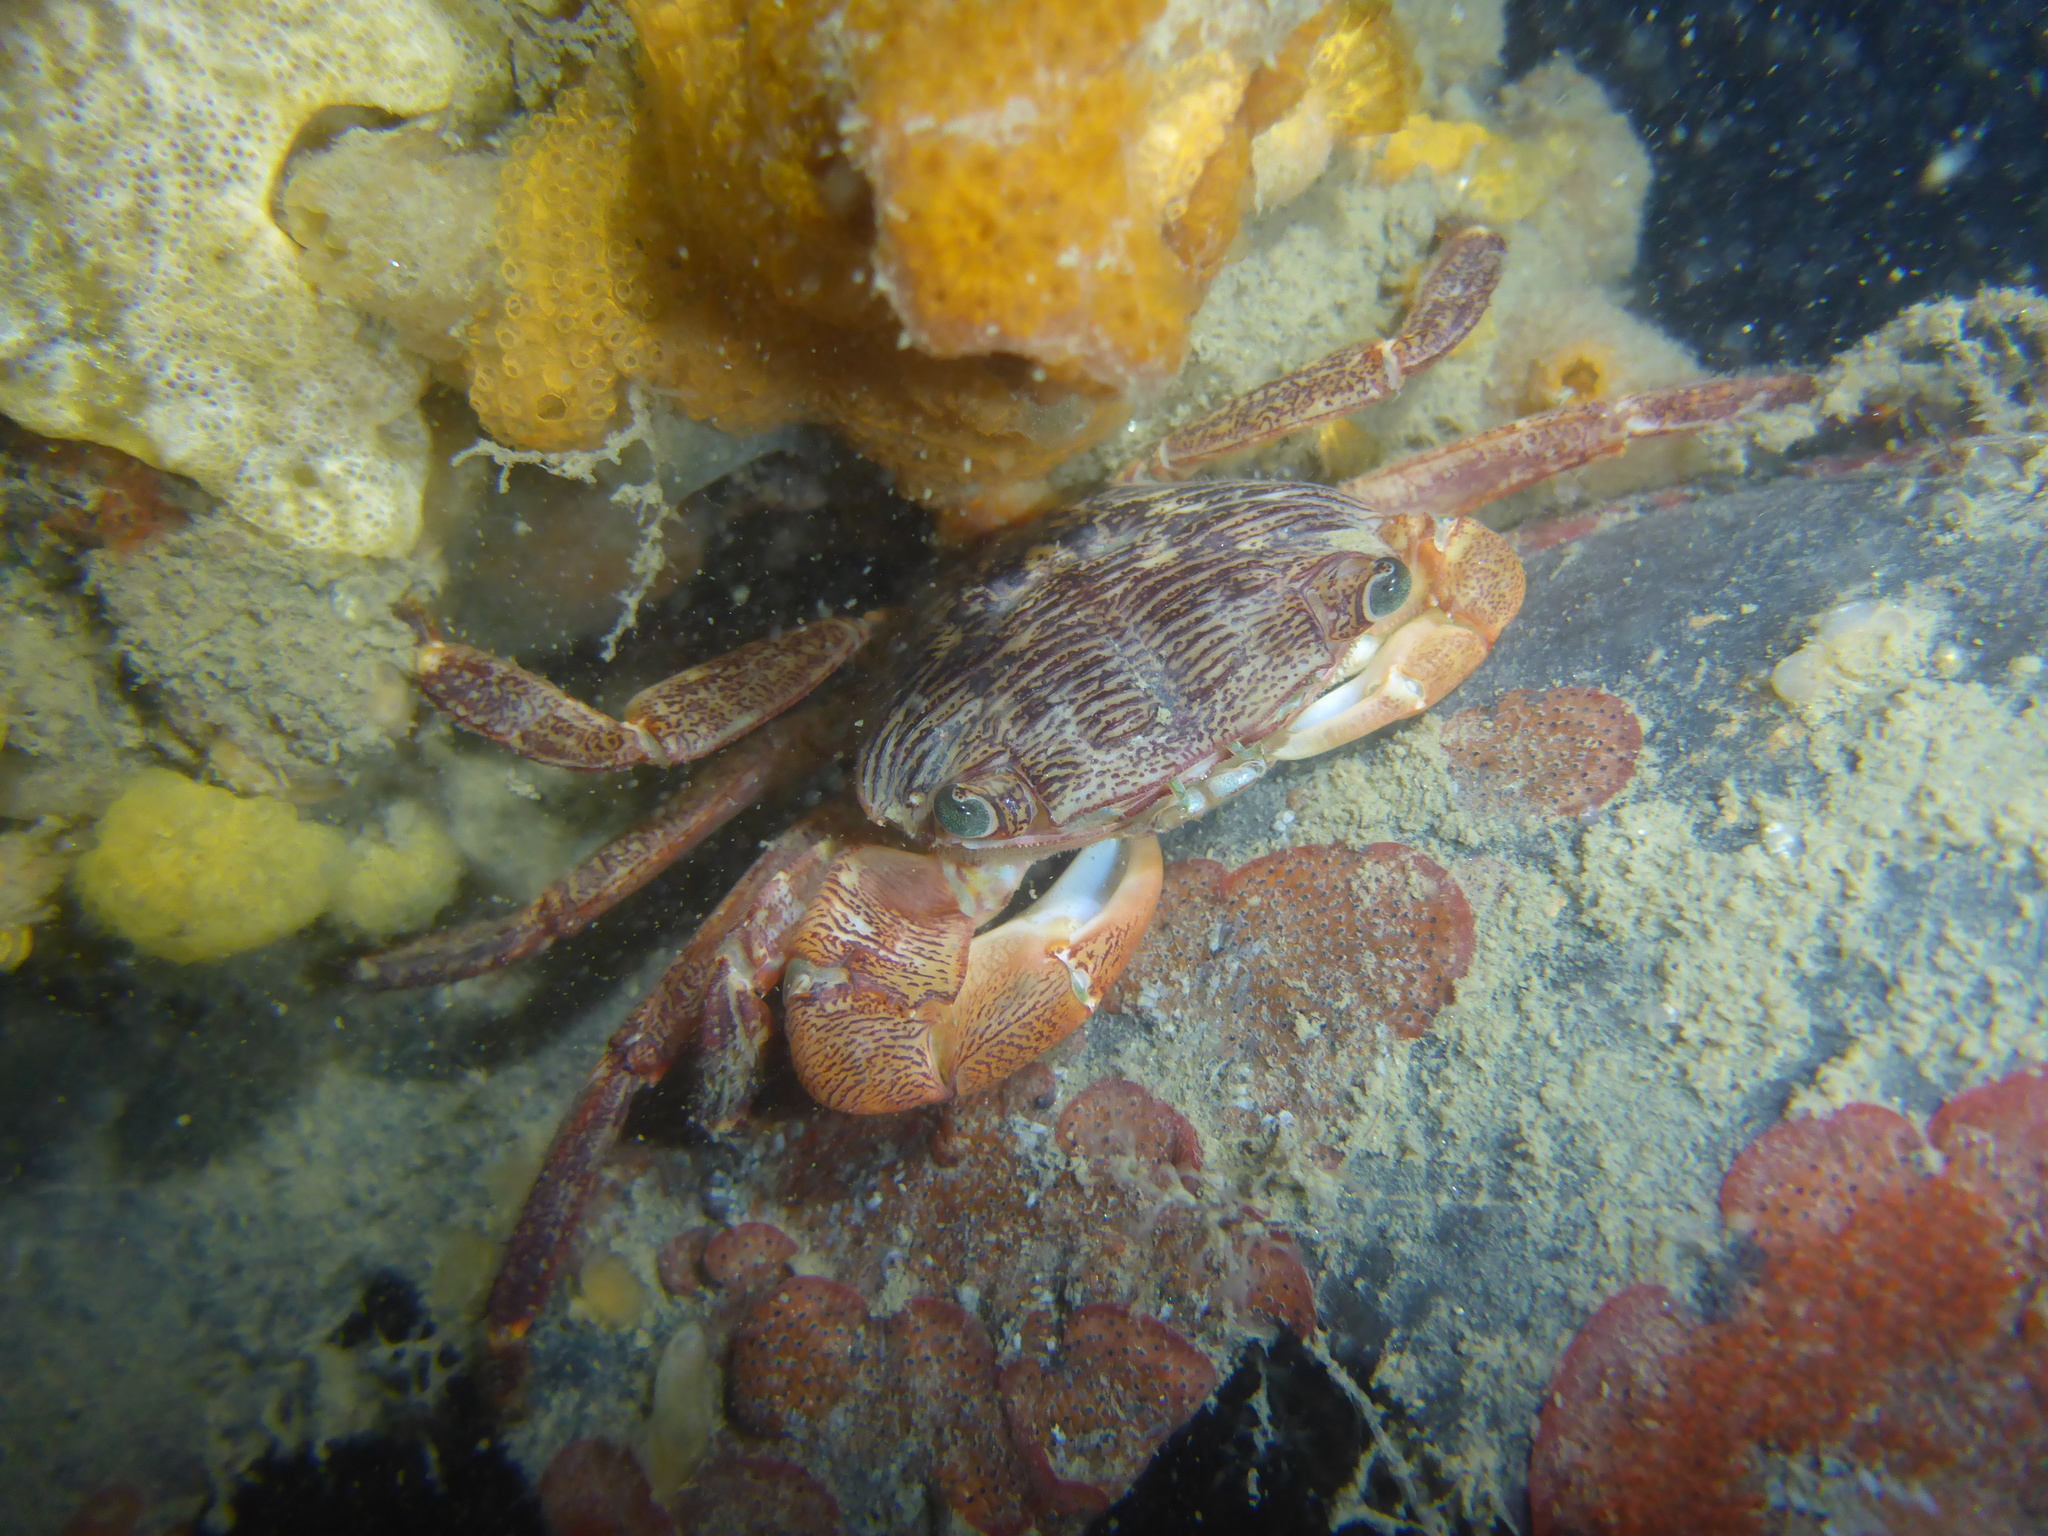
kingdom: Animalia
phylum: Arthropoda
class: Malacostraca
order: Decapoda
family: Grapsidae
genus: Pachygrapsus
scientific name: Pachygrapsus crassipes
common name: Striped shore crab
